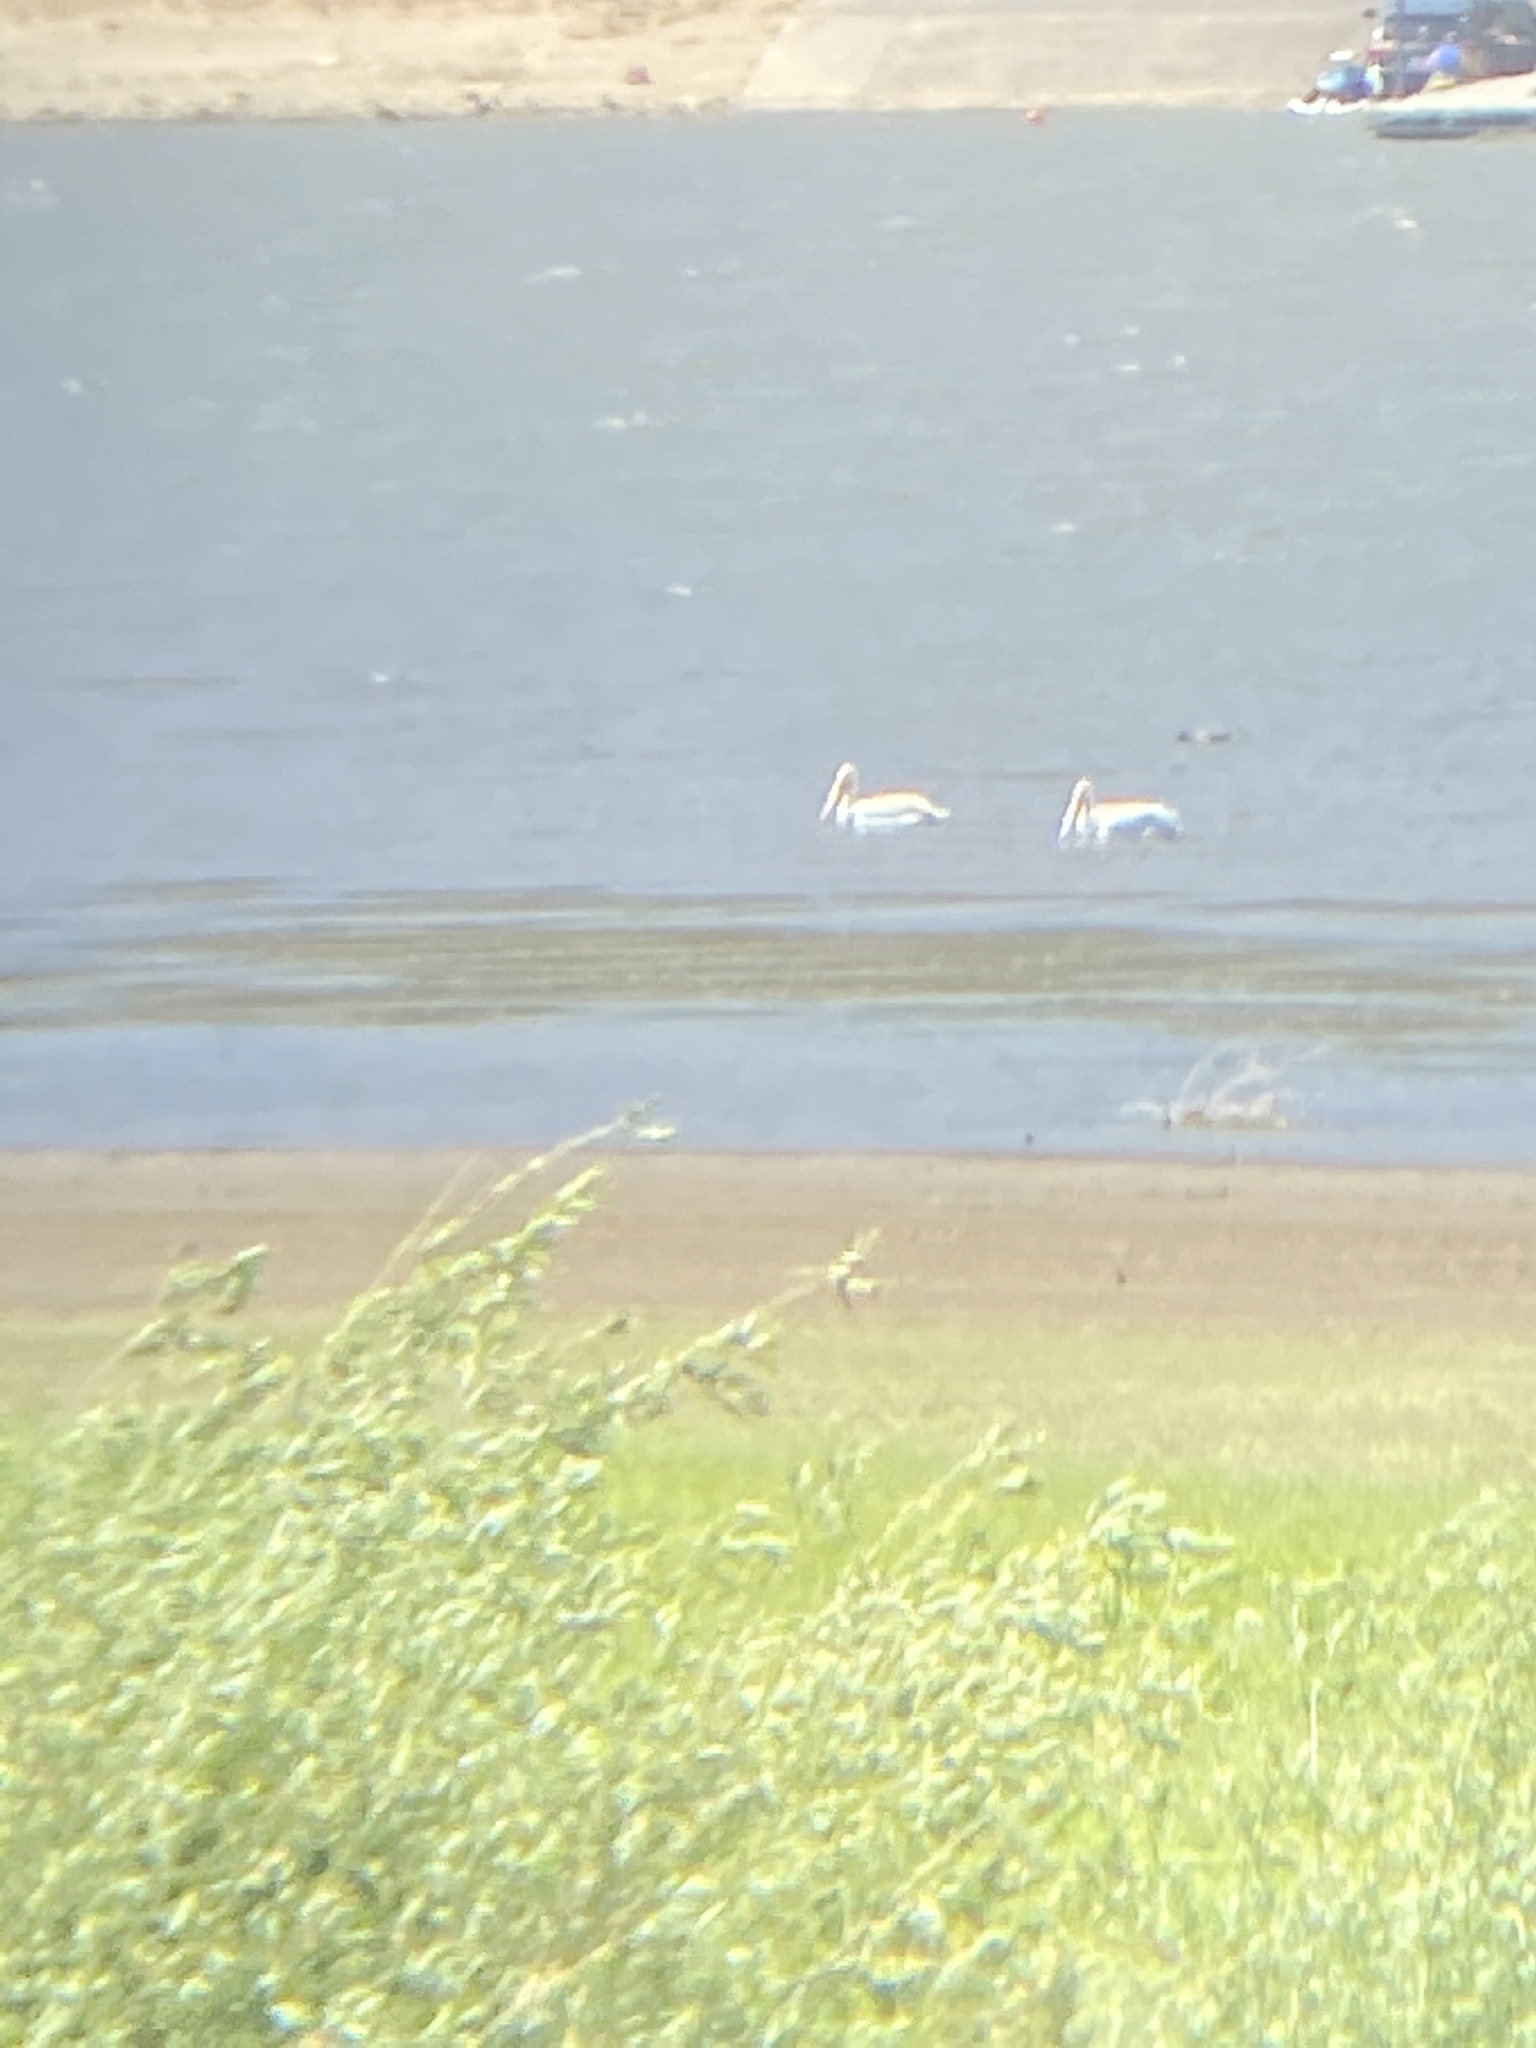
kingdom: Animalia
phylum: Chordata
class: Aves
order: Pelecaniformes
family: Pelecanidae
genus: Pelecanus
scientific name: Pelecanus erythrorhynchos
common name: American white pelican
